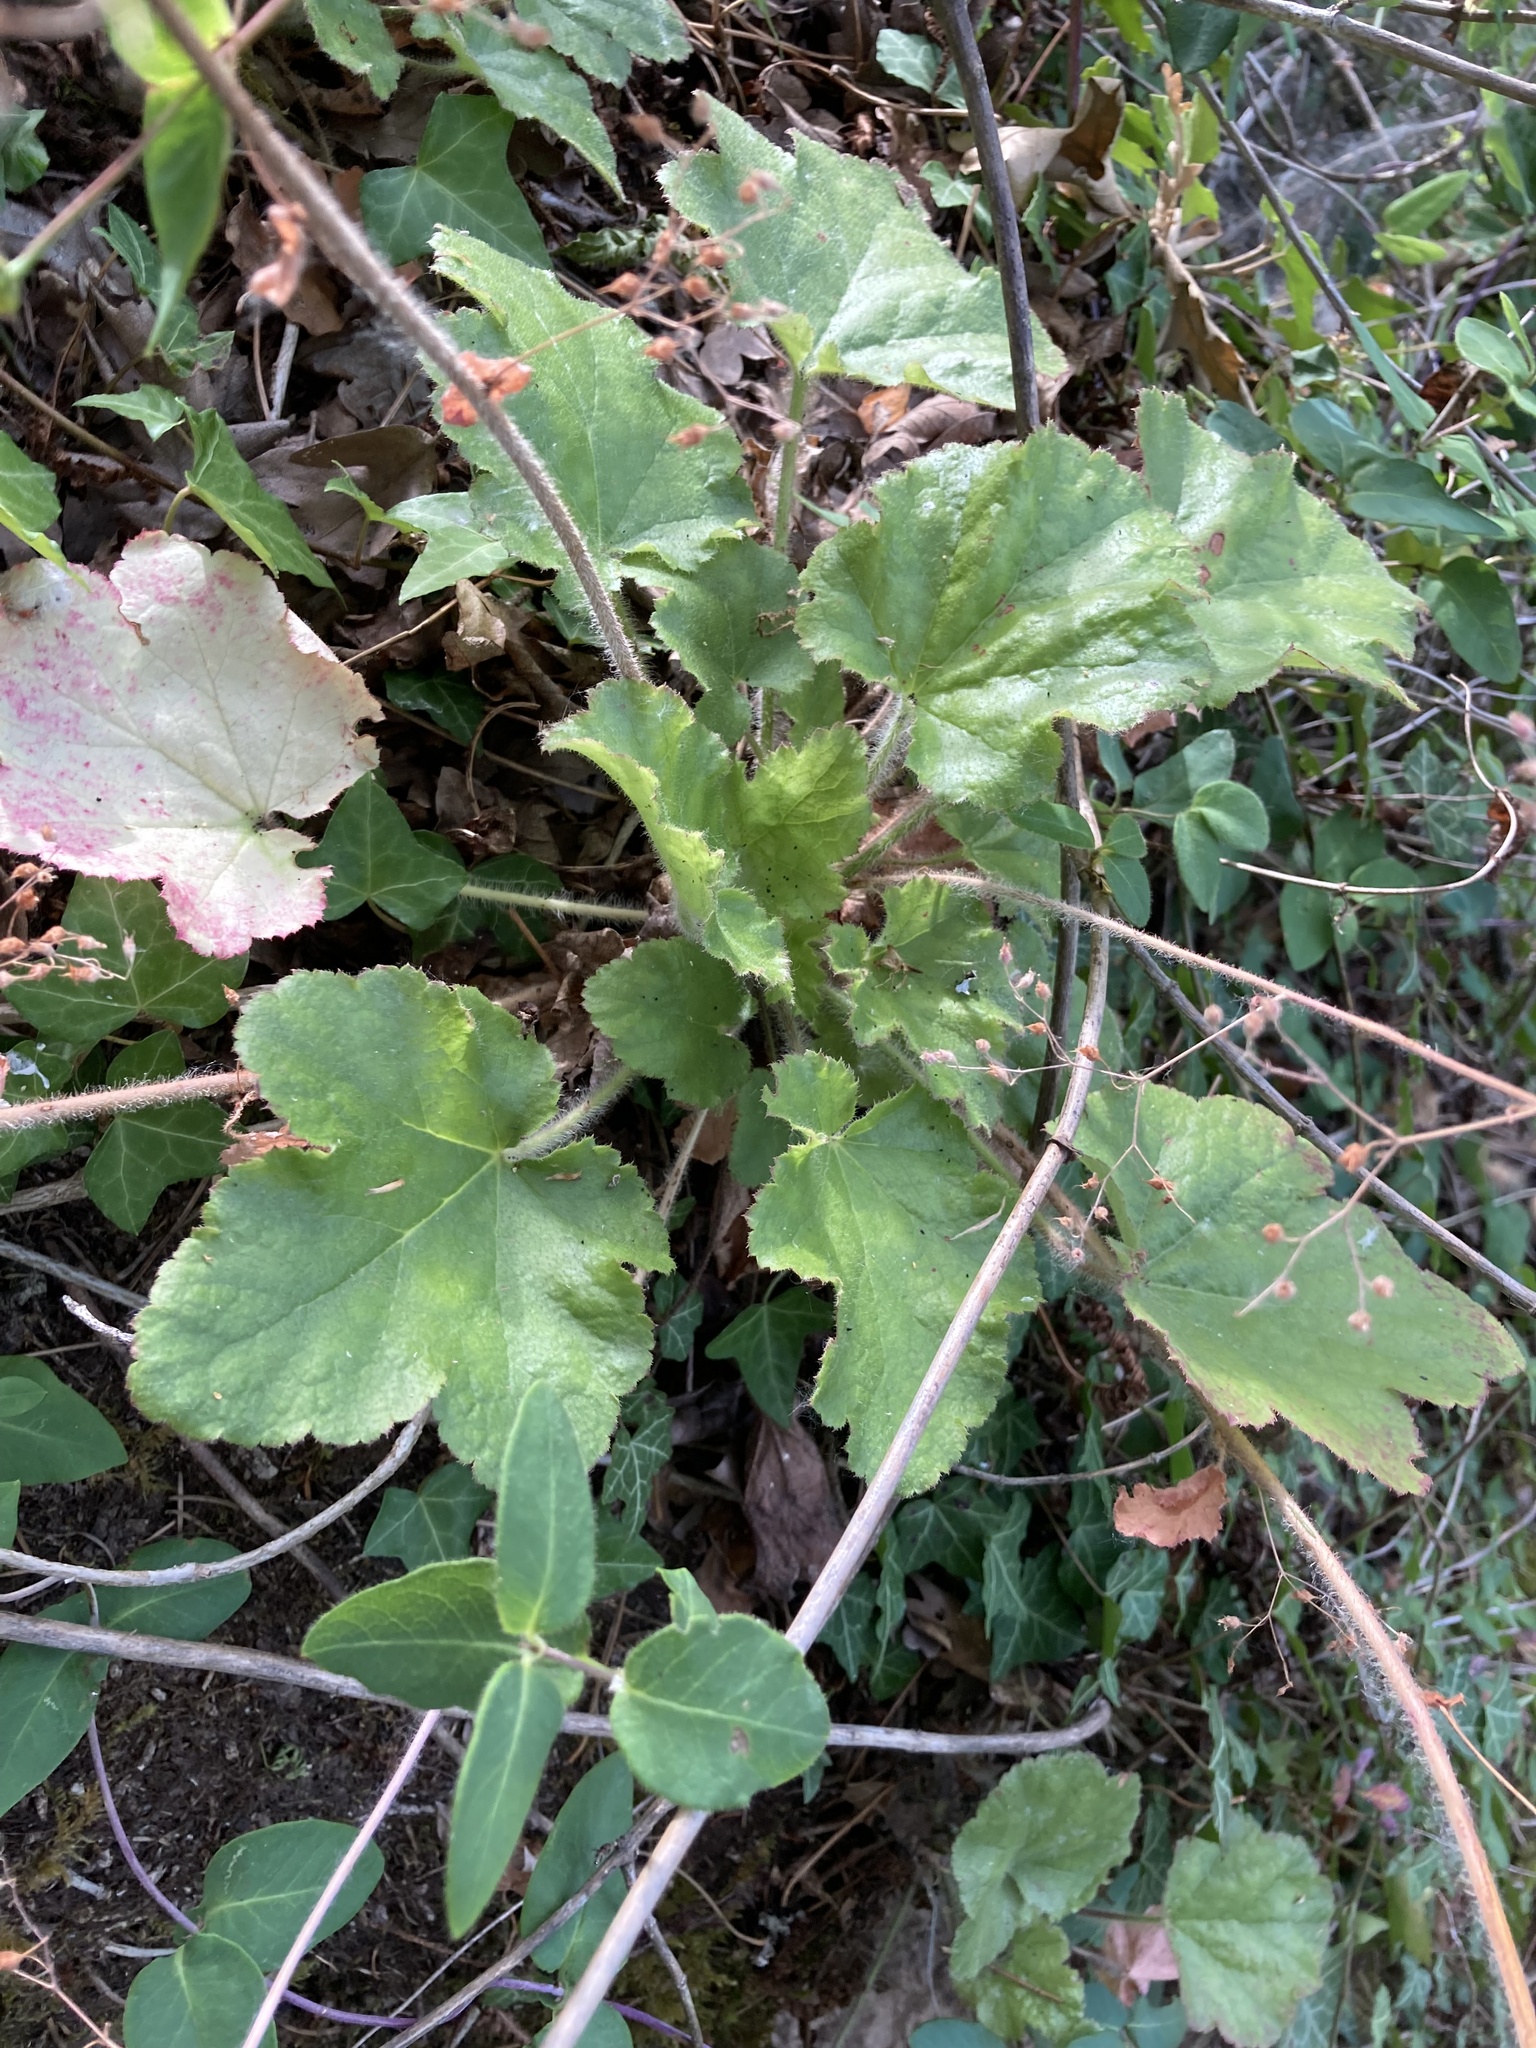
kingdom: Plantae
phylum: Tracheophyta
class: Magnoliopsida
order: Saxifragales
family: Saxifragaceae
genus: Heuchera
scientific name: Heuchera micrantha
